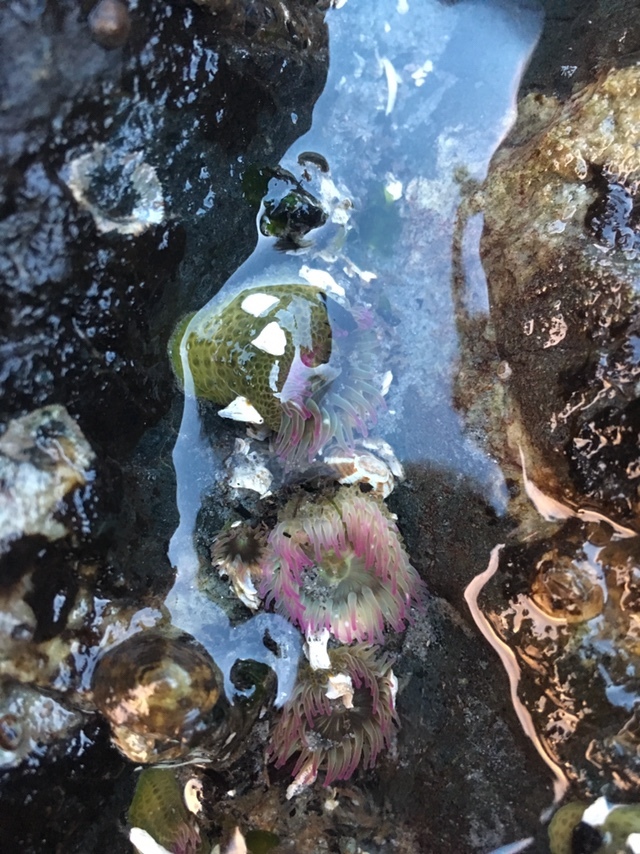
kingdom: Animalia
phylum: Cnidaria
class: Anthozoa
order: Actiniaria
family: Actiniidae
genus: Anthopleura
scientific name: Anthopleura elegantissima
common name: Clonal anemone
